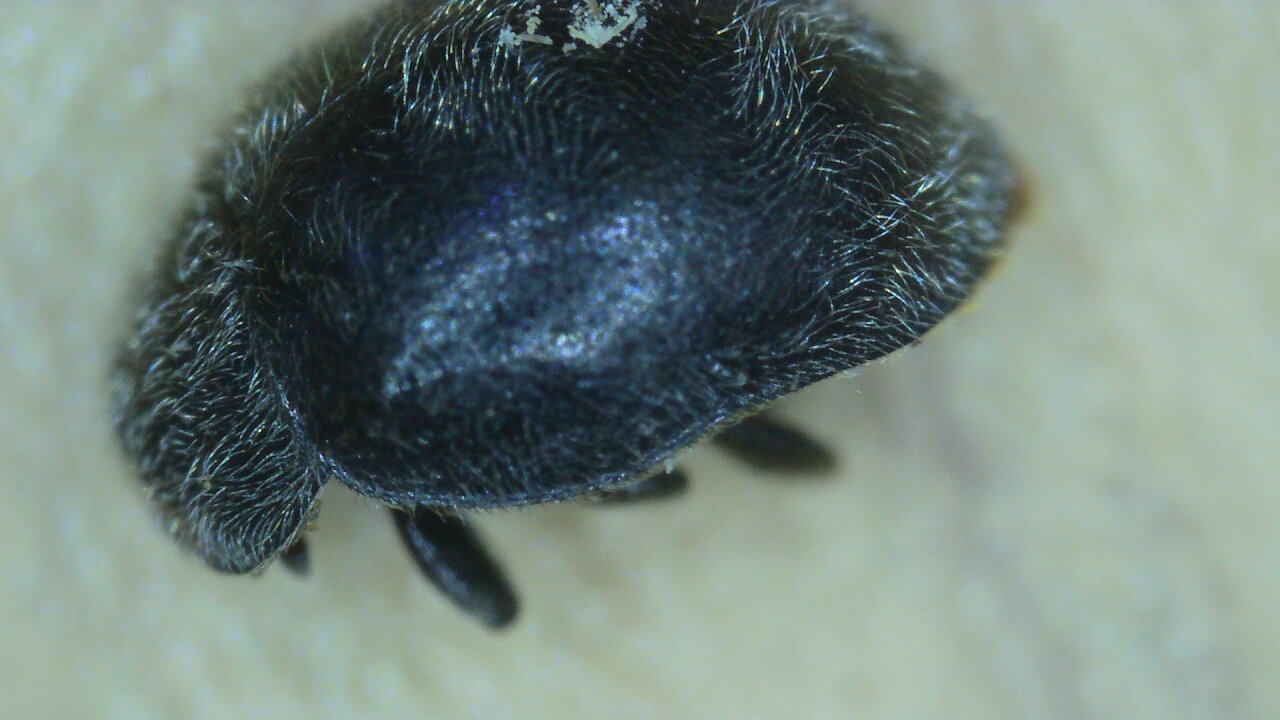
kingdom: Animalia
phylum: Arthropoda
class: Insecta
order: Coleoptera
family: Coccinellidae
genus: Rhyzobius
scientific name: Rhyzobius forestieri
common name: Ladybird beetle
